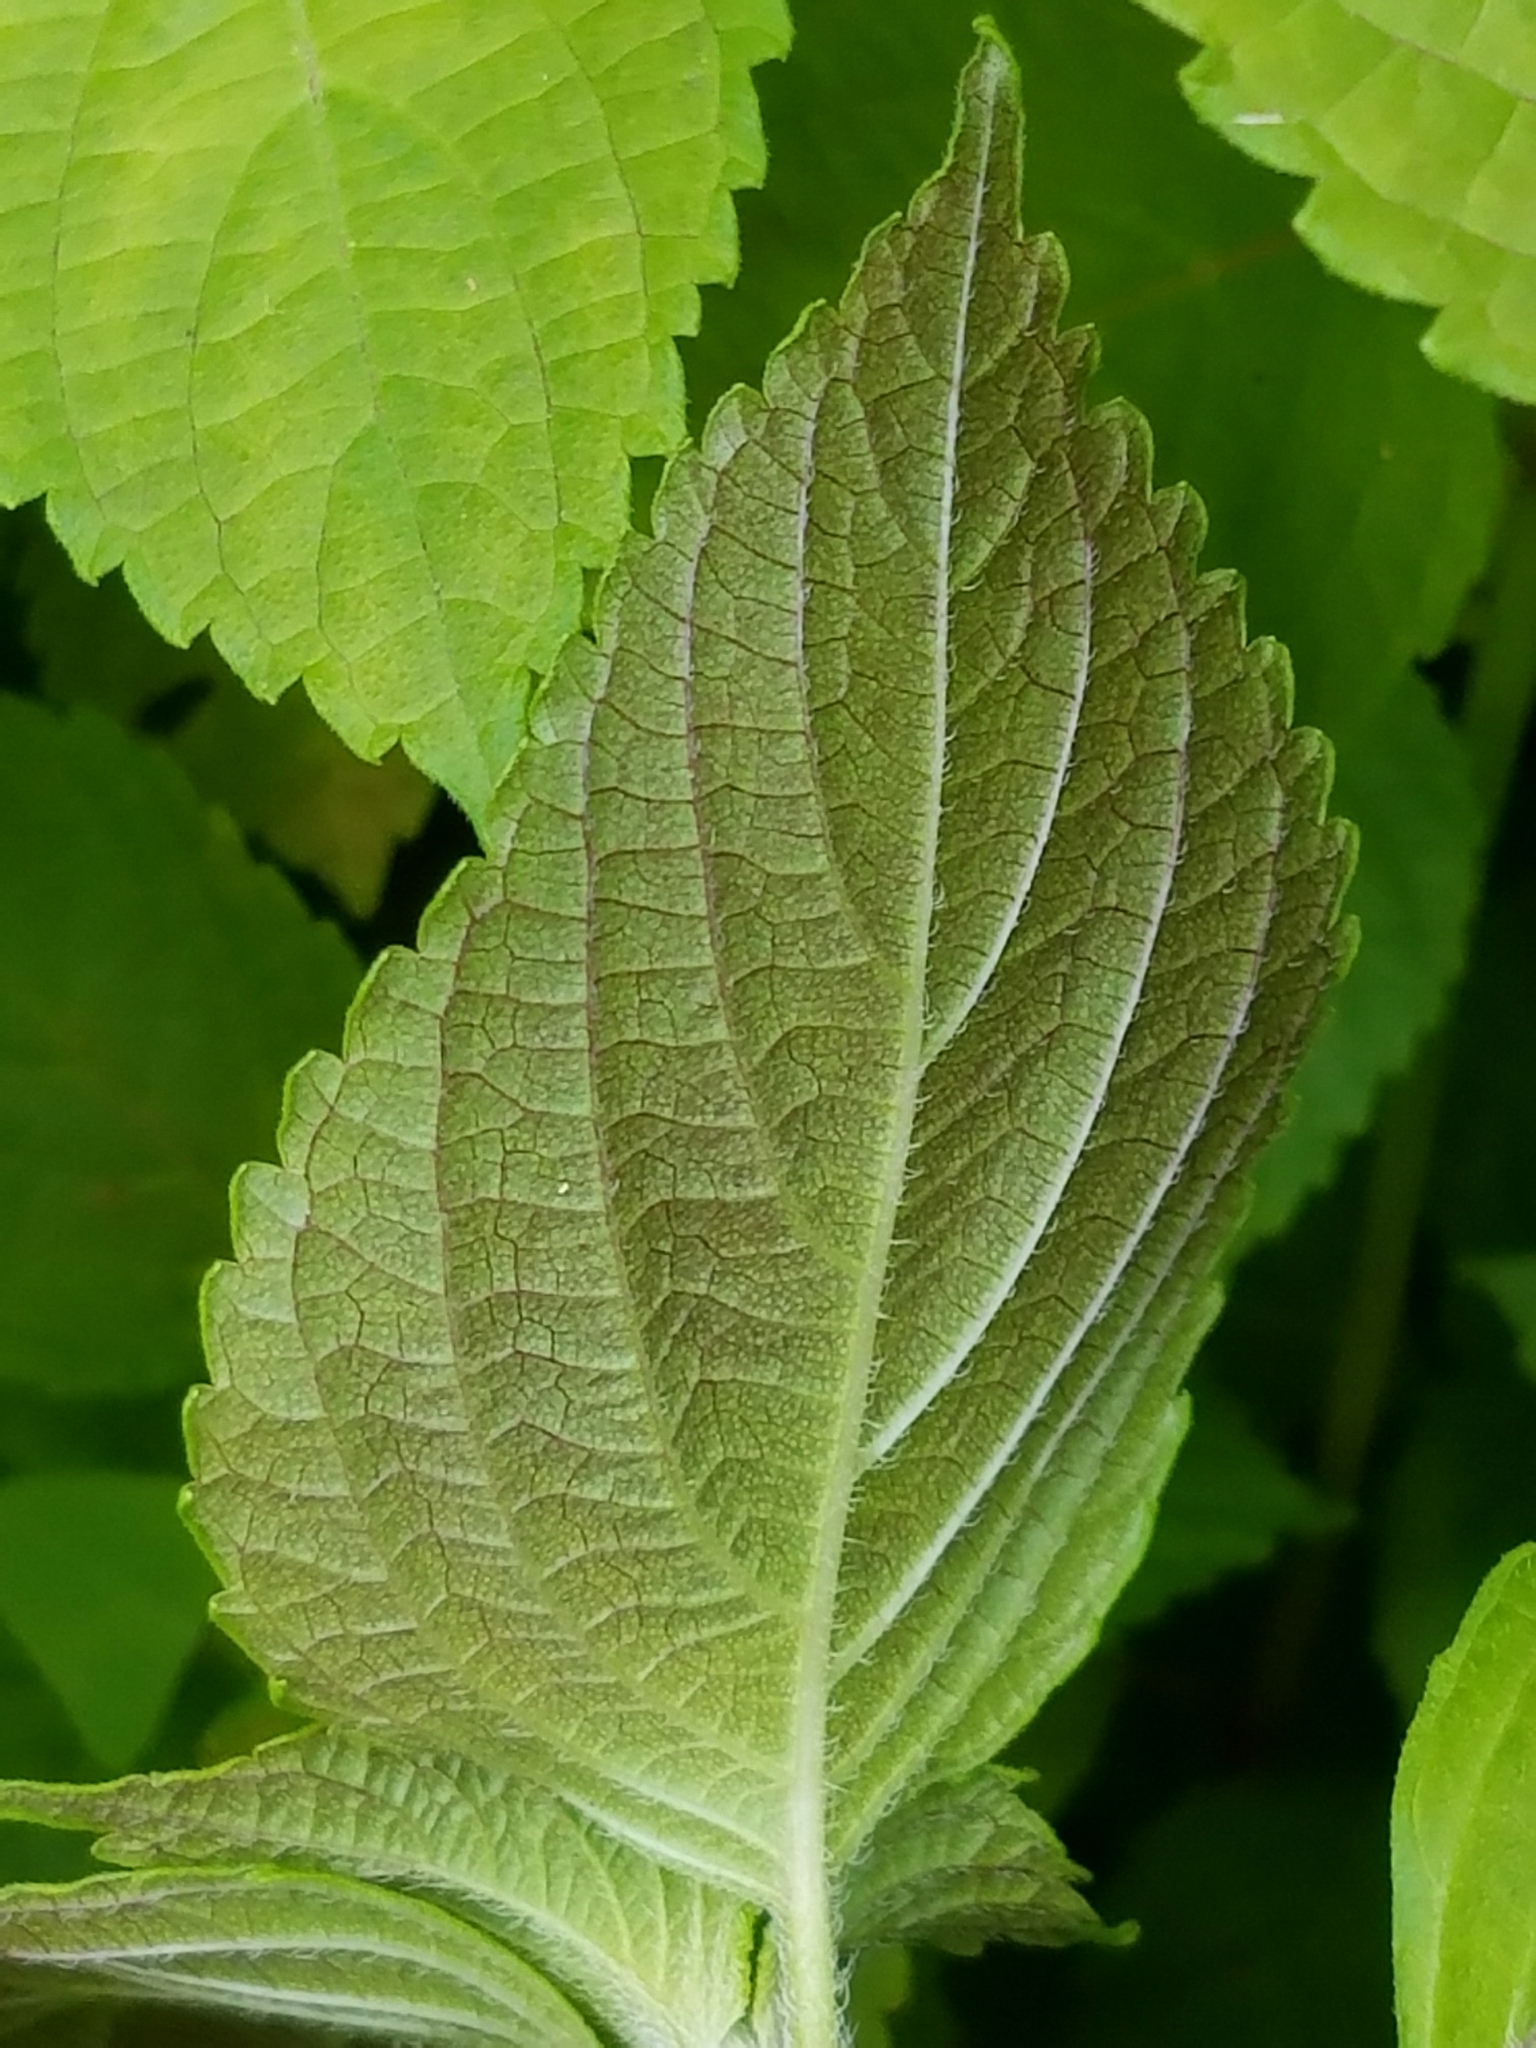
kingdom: Plantae
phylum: Tracheophyta
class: Magnoliopsida
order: Lamiales
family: Lamiaceae
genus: Perilla
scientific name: Perilla frutescens
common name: Perilla
